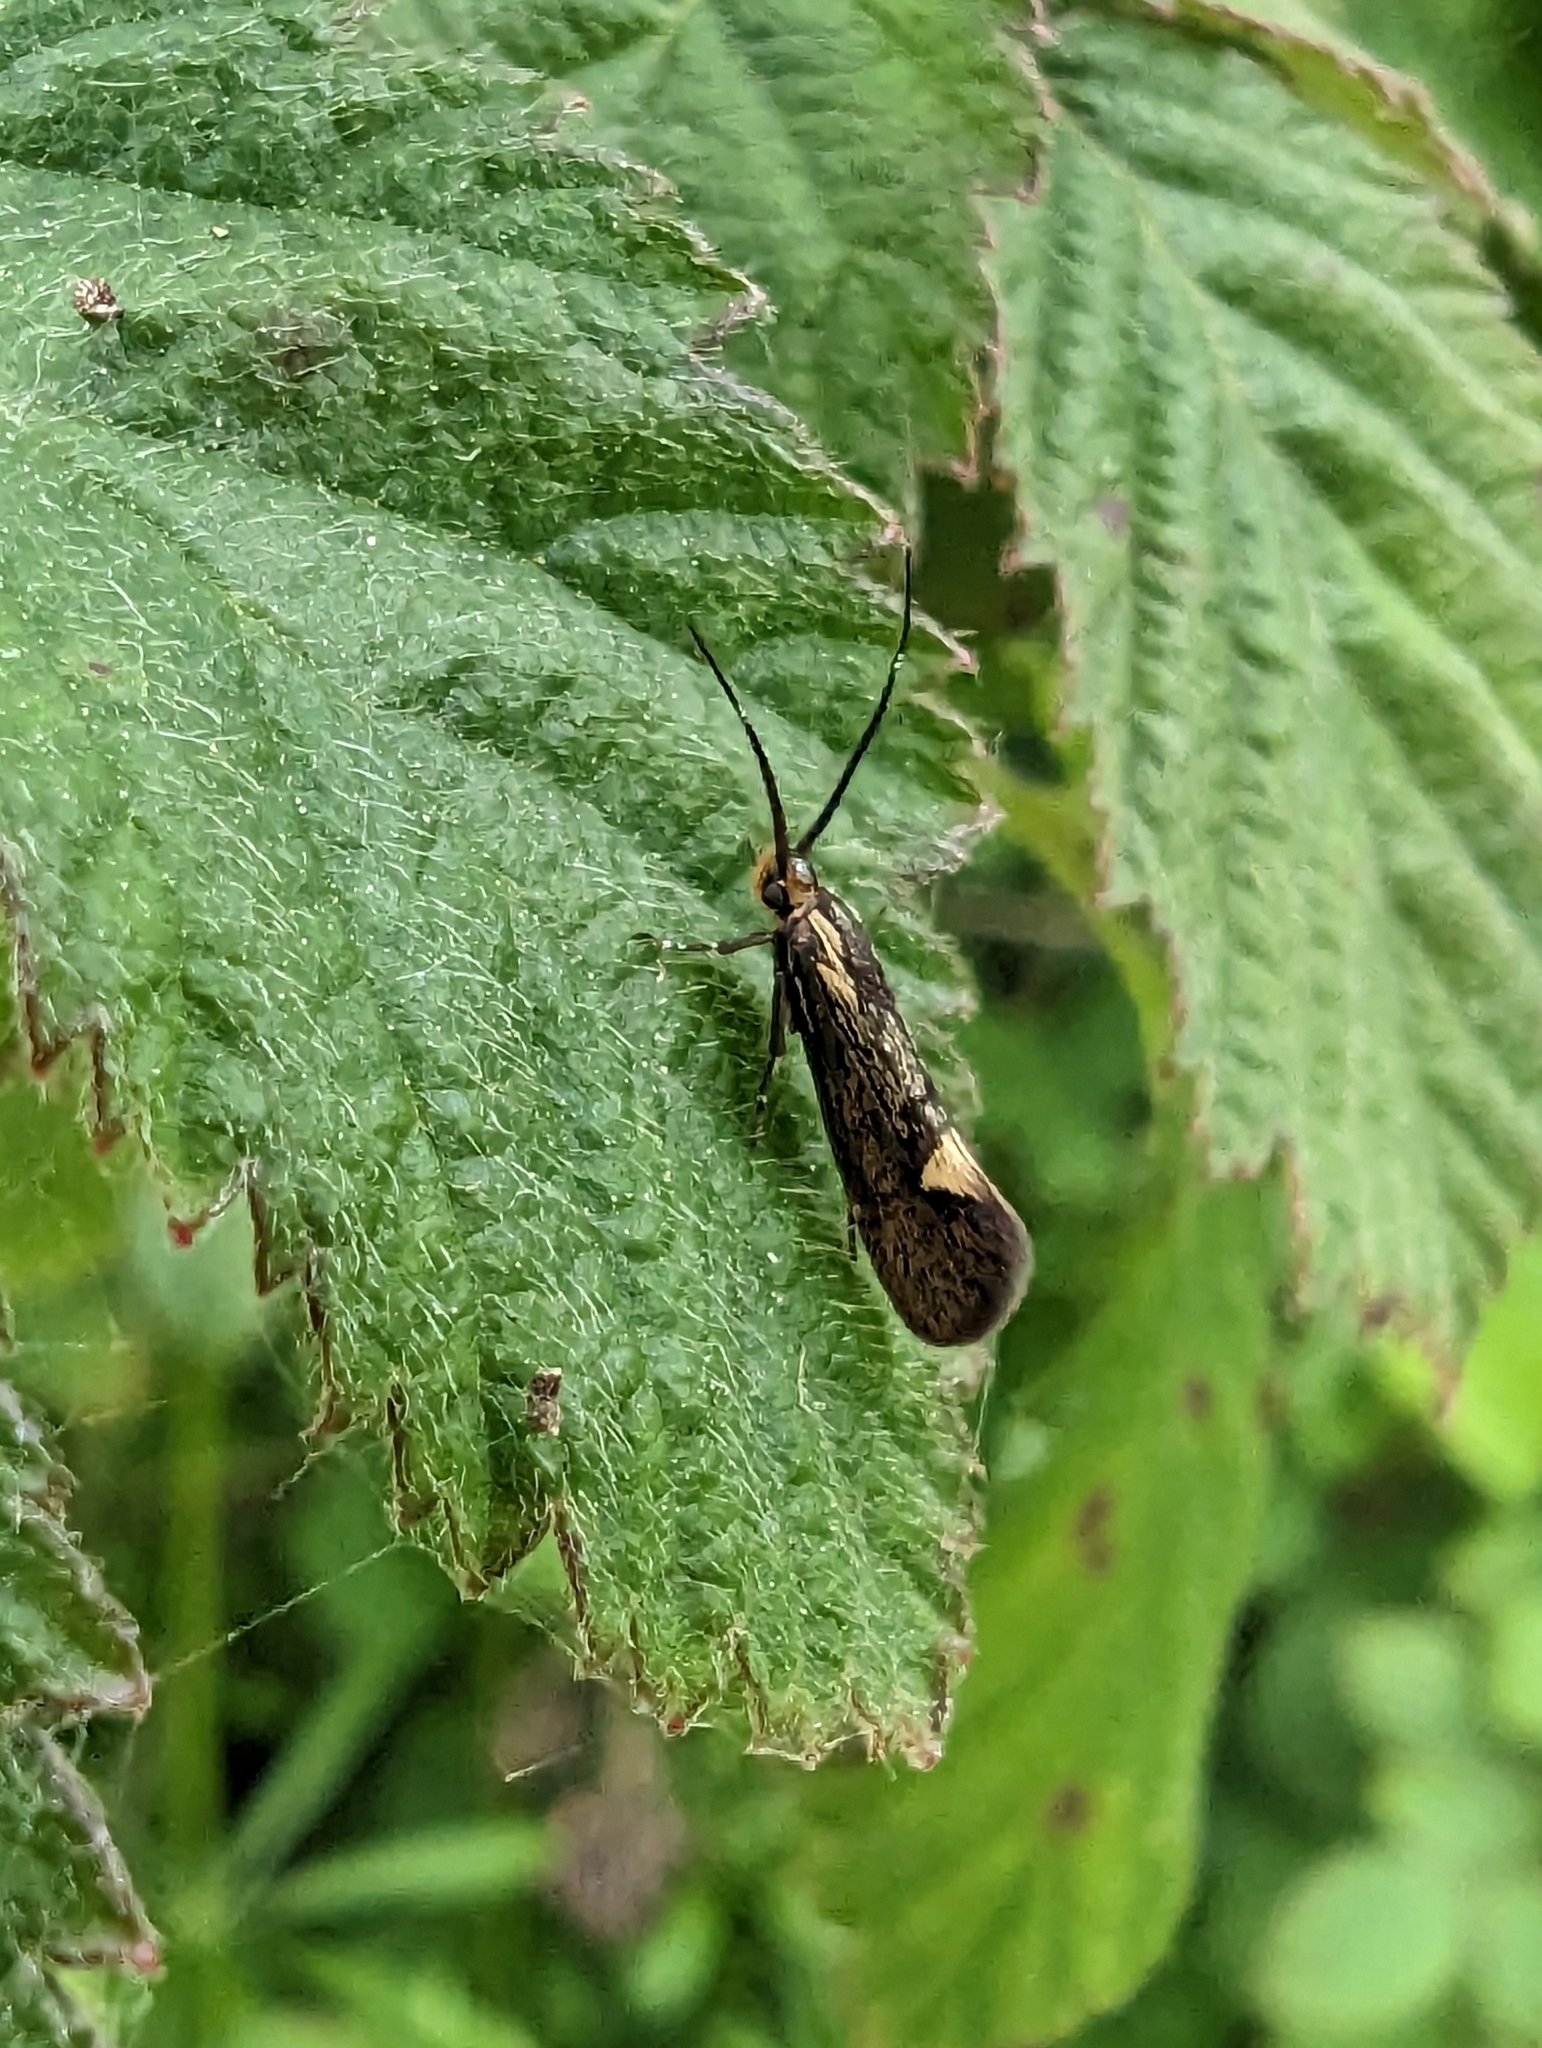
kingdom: Animalia
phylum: Arthropoda
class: Insecta
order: Lepidoptera
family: Oecophoridae
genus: Dafa
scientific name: Dafa Esperia sulphurella
